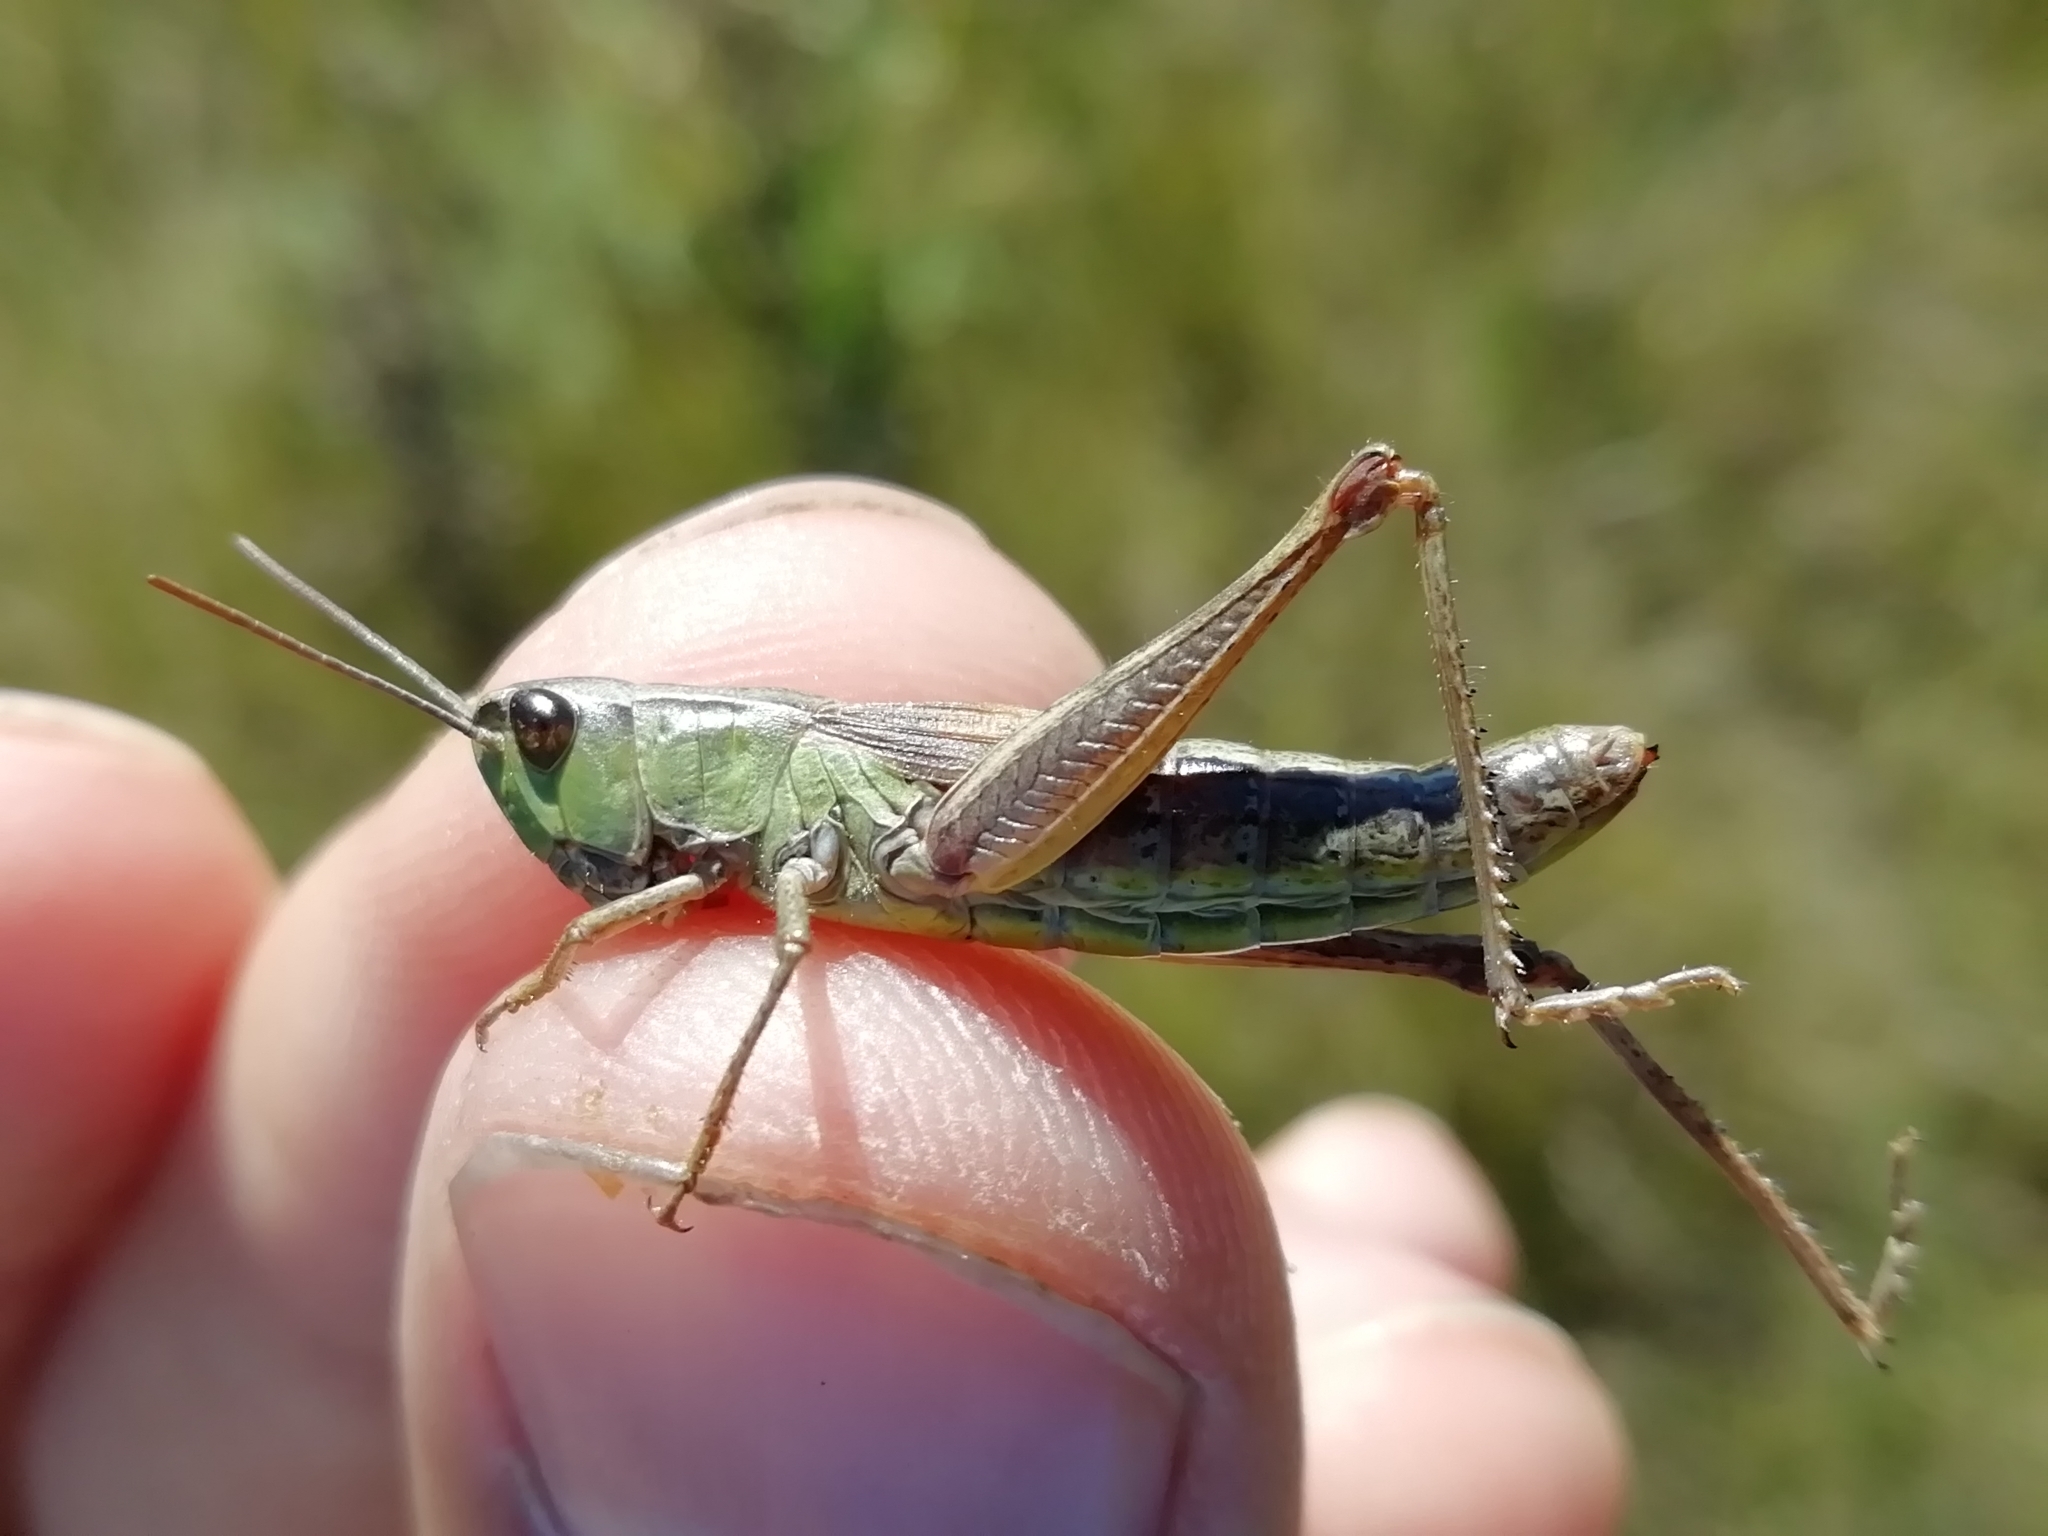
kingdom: Animalia
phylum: Arthropoda
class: Insecta
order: Orthoptera
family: Acrididae
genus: Pseudochorthippus
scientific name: Pseudochorthippus parallelus
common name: Meadow grasshopper
